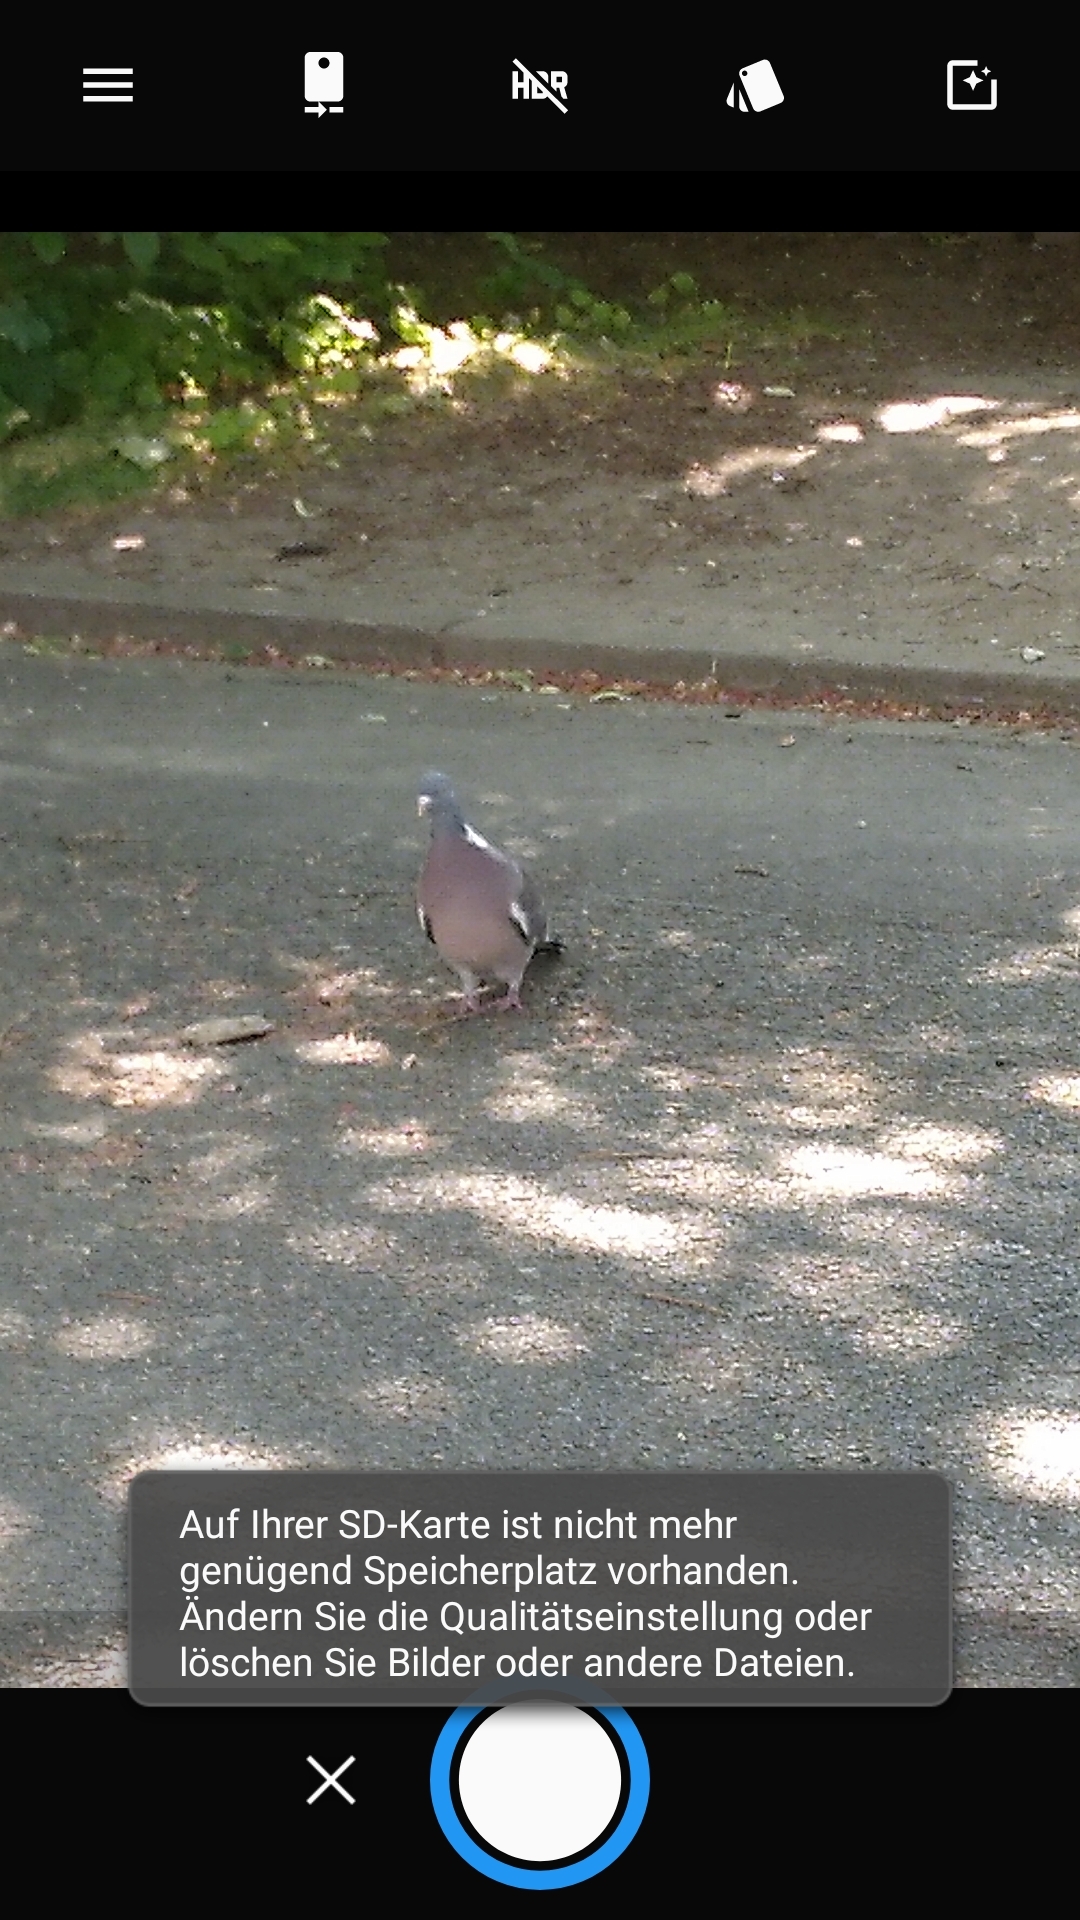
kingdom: Animalia
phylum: Chordata
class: Aves
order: Columbiformes
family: Columbidae
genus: Columba
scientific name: Columba palumbus
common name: Common wood pigeon
